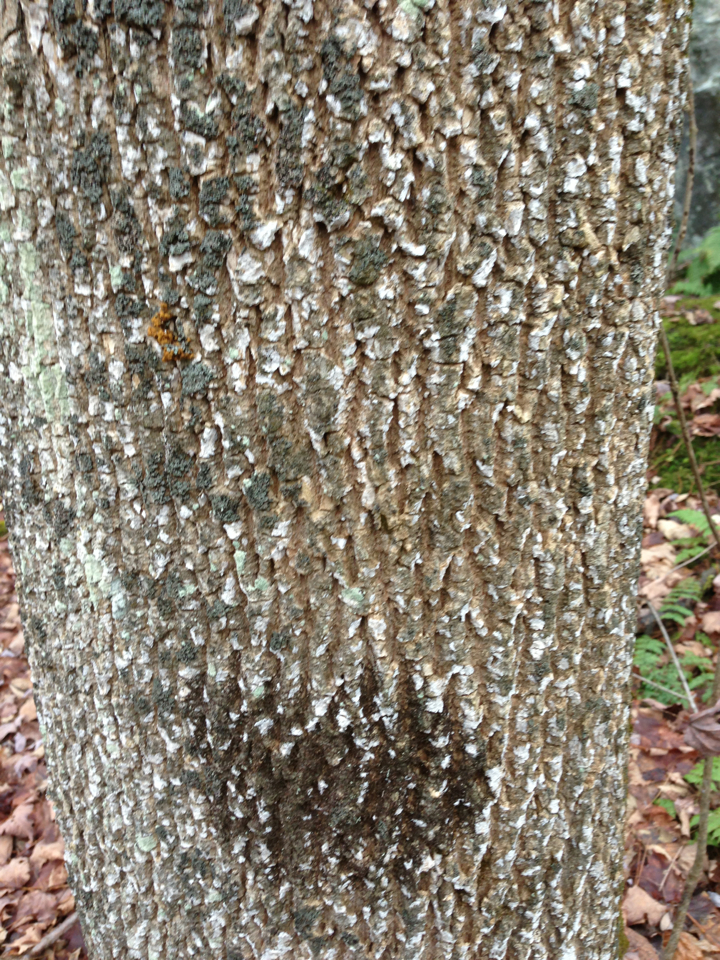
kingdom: Plantae
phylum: Tracheophyta
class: Magnoliopsida
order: Lamiales
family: Oleaceae
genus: Fraxinus
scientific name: Fraxinus americana
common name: White ash
